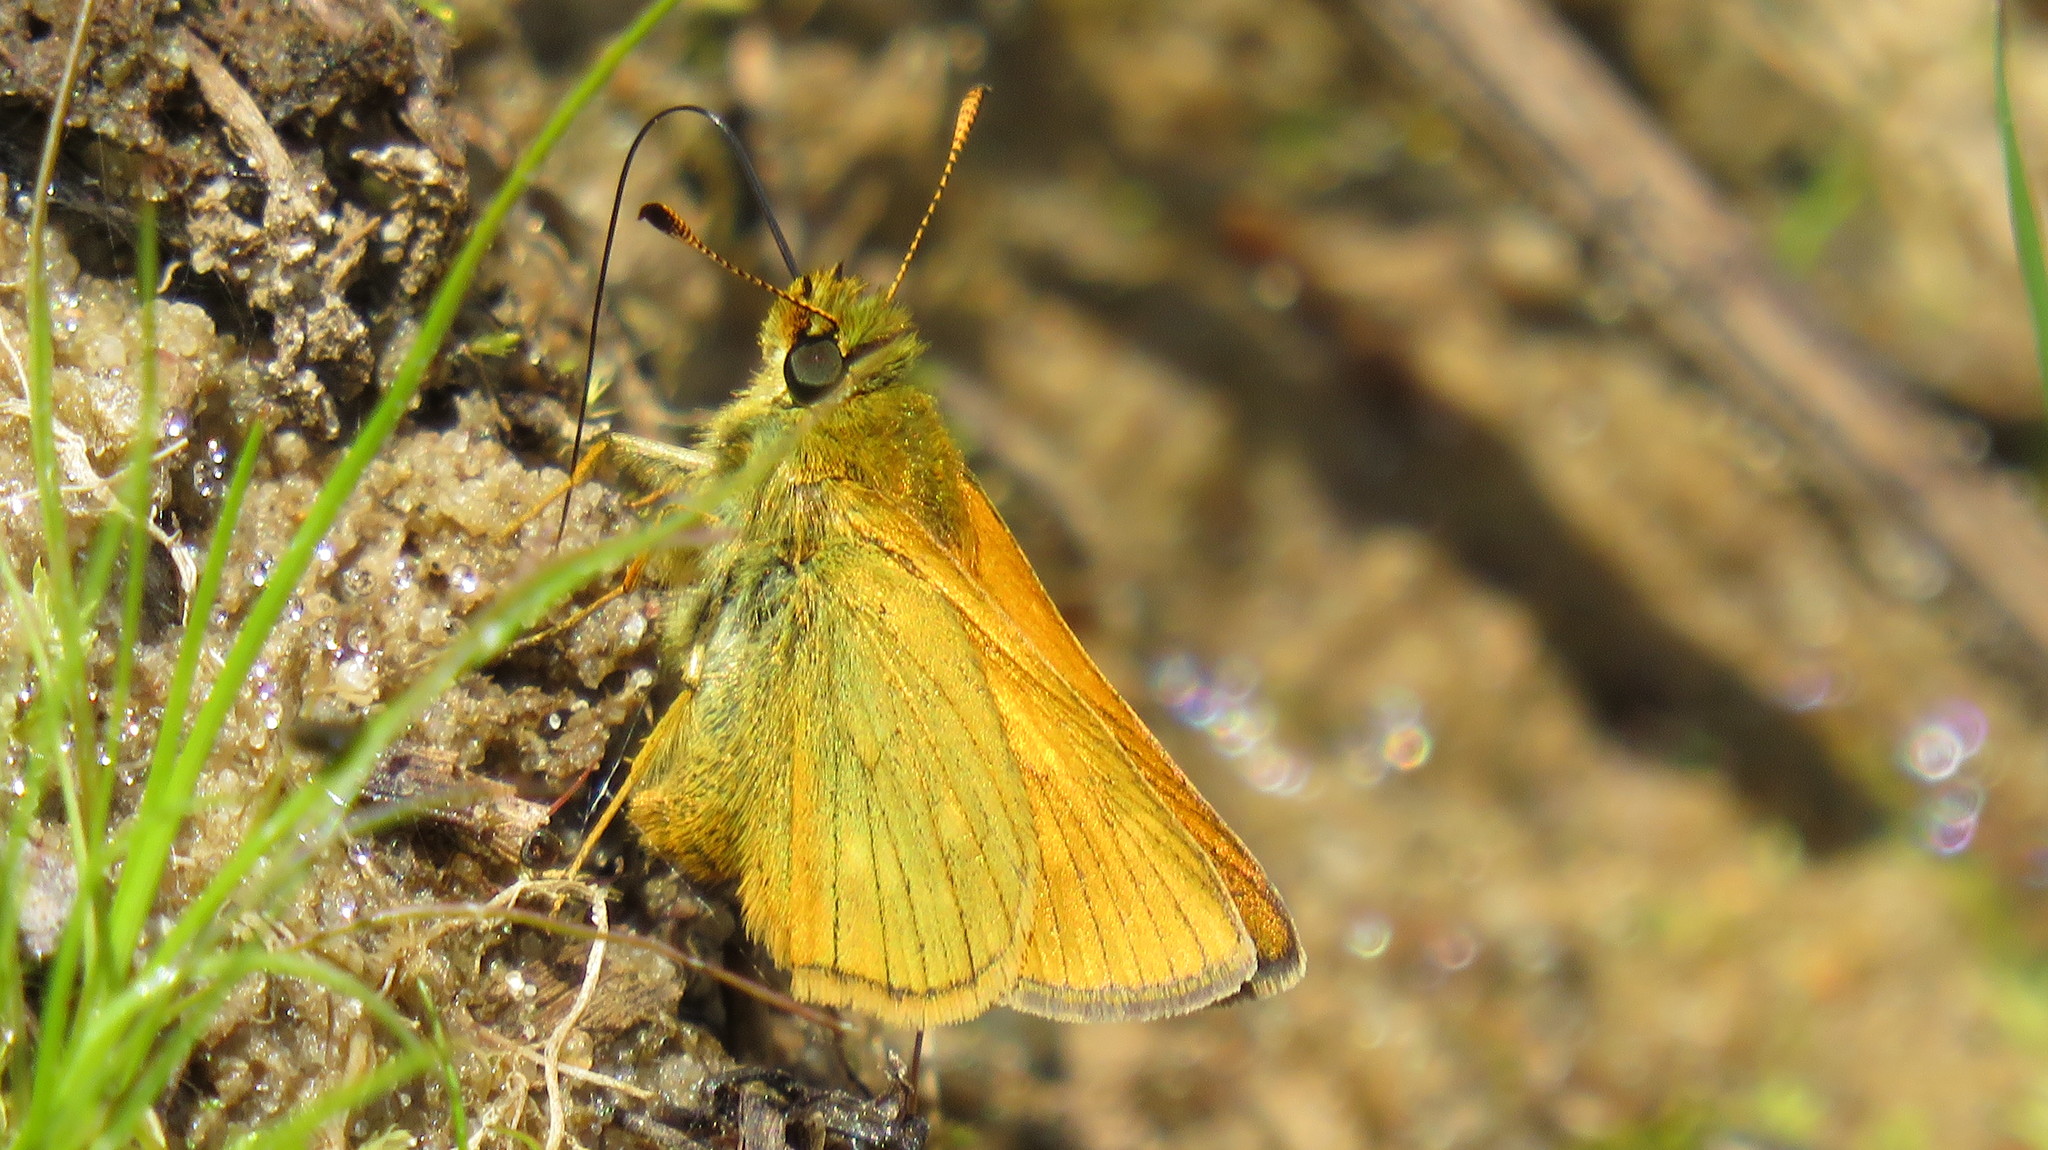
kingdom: Animalia
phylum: Arthropoda
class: Insecta
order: Lepidoptera
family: Hesperiidae
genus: Ochlodes
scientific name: Ochlodes venata
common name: Large skipper
